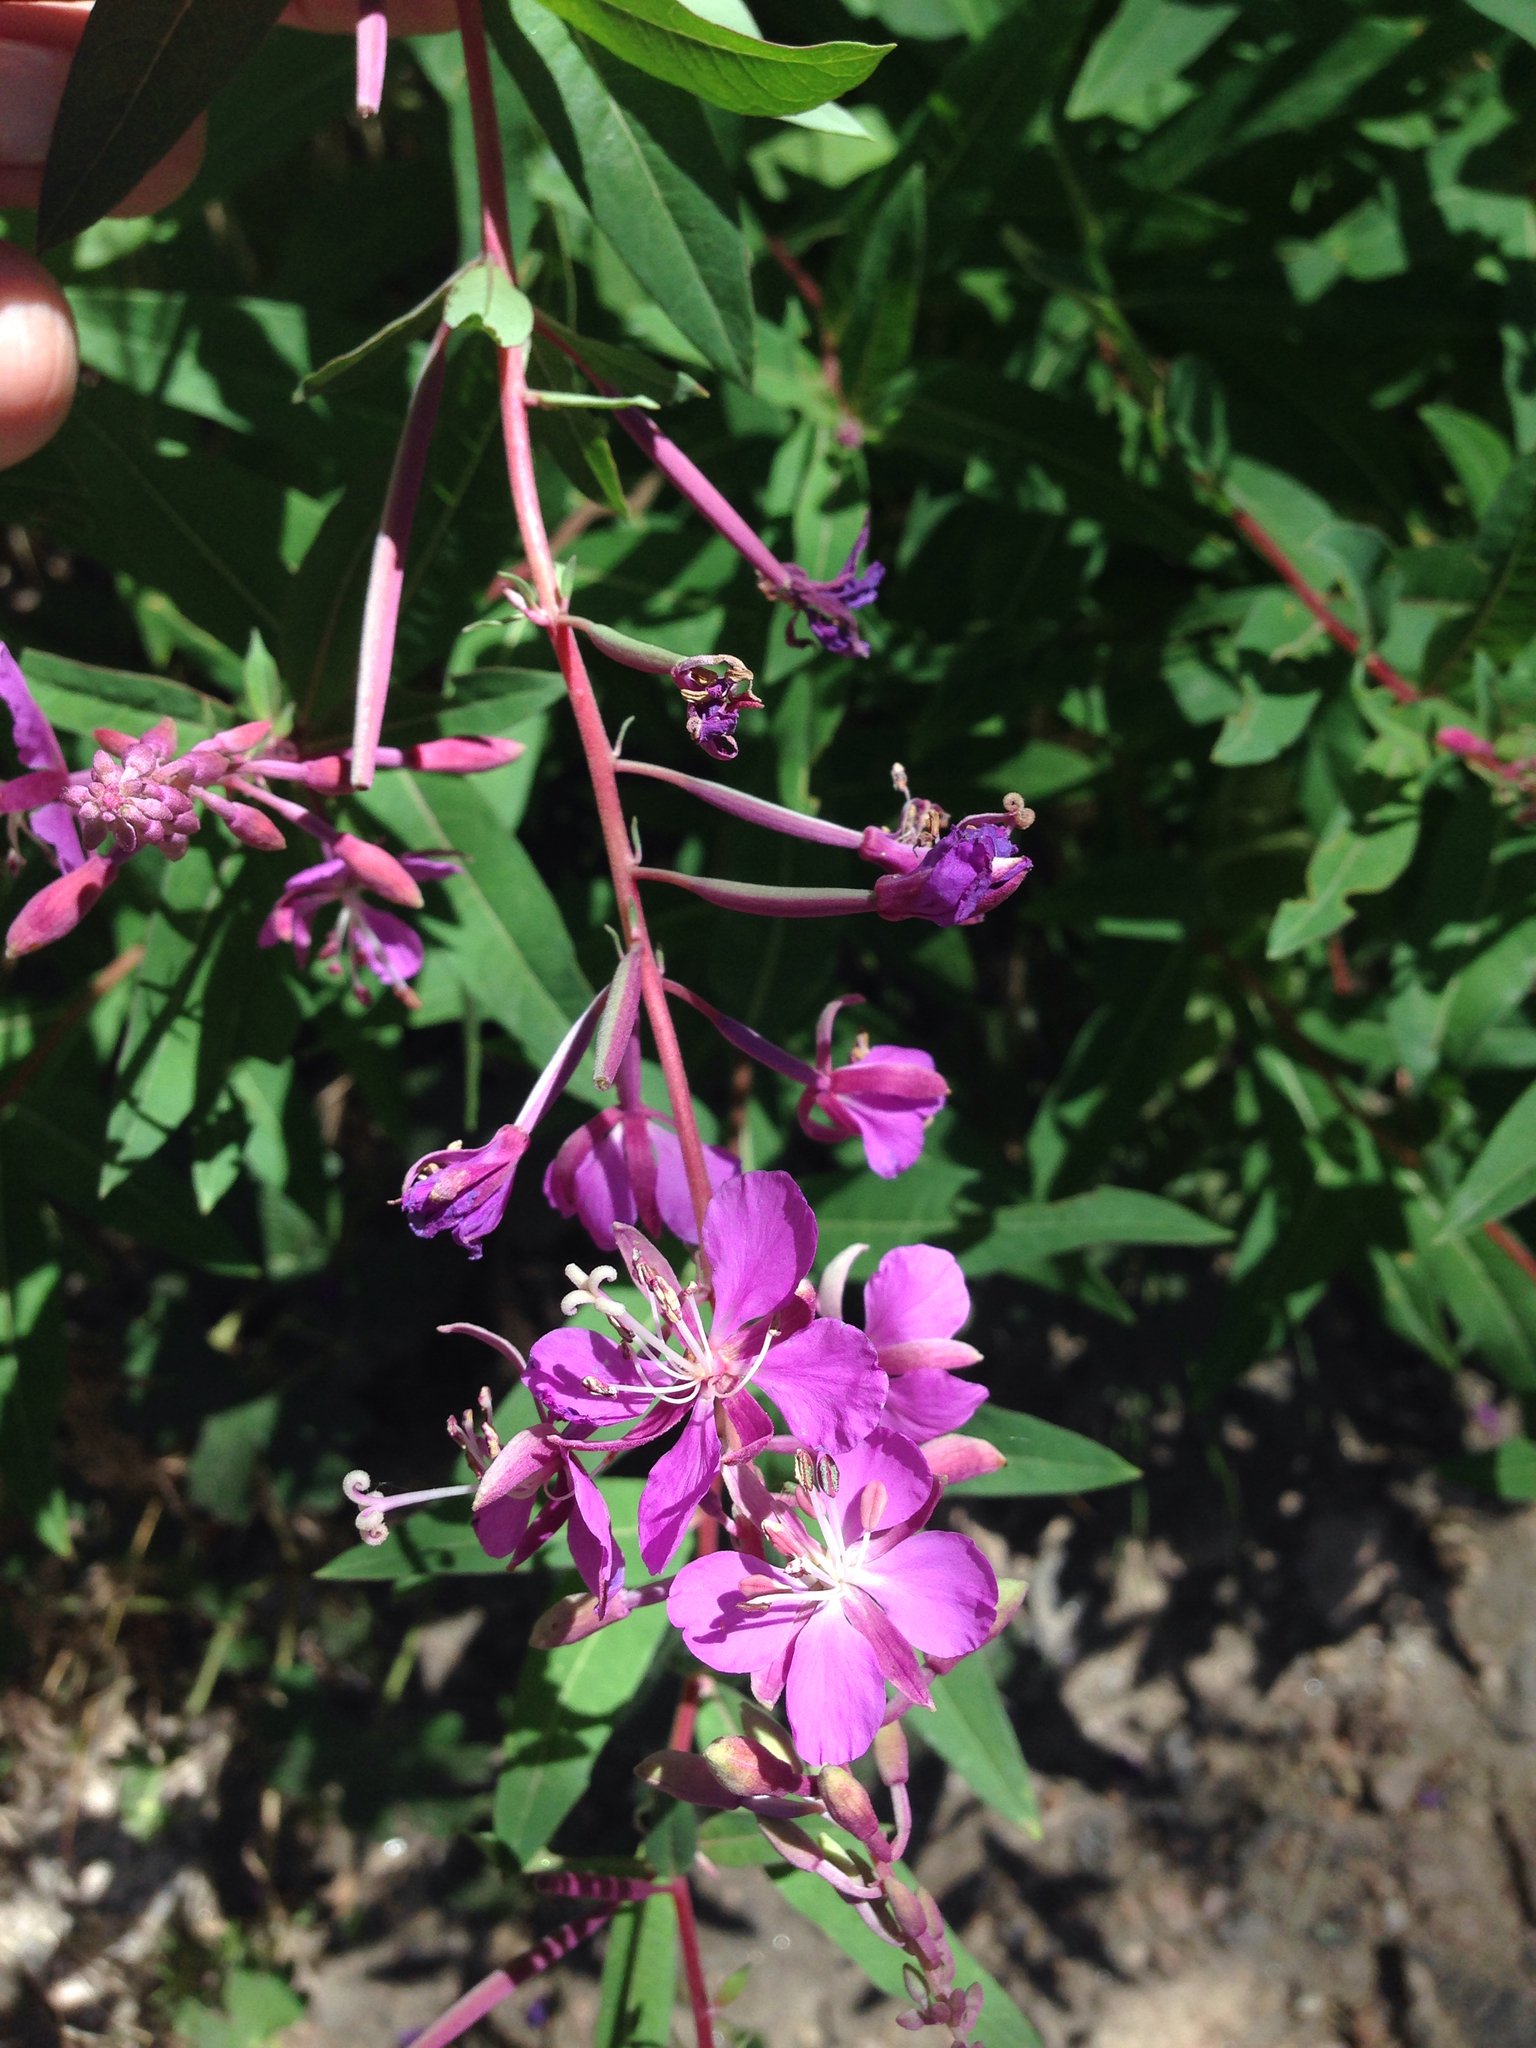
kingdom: Plantae
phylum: Tracheophyta
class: Magnoliopsida
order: Myrtales
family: Onagraceae
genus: Chamaenerion
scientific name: Chamaenerion angustifolium
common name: Fireweed
